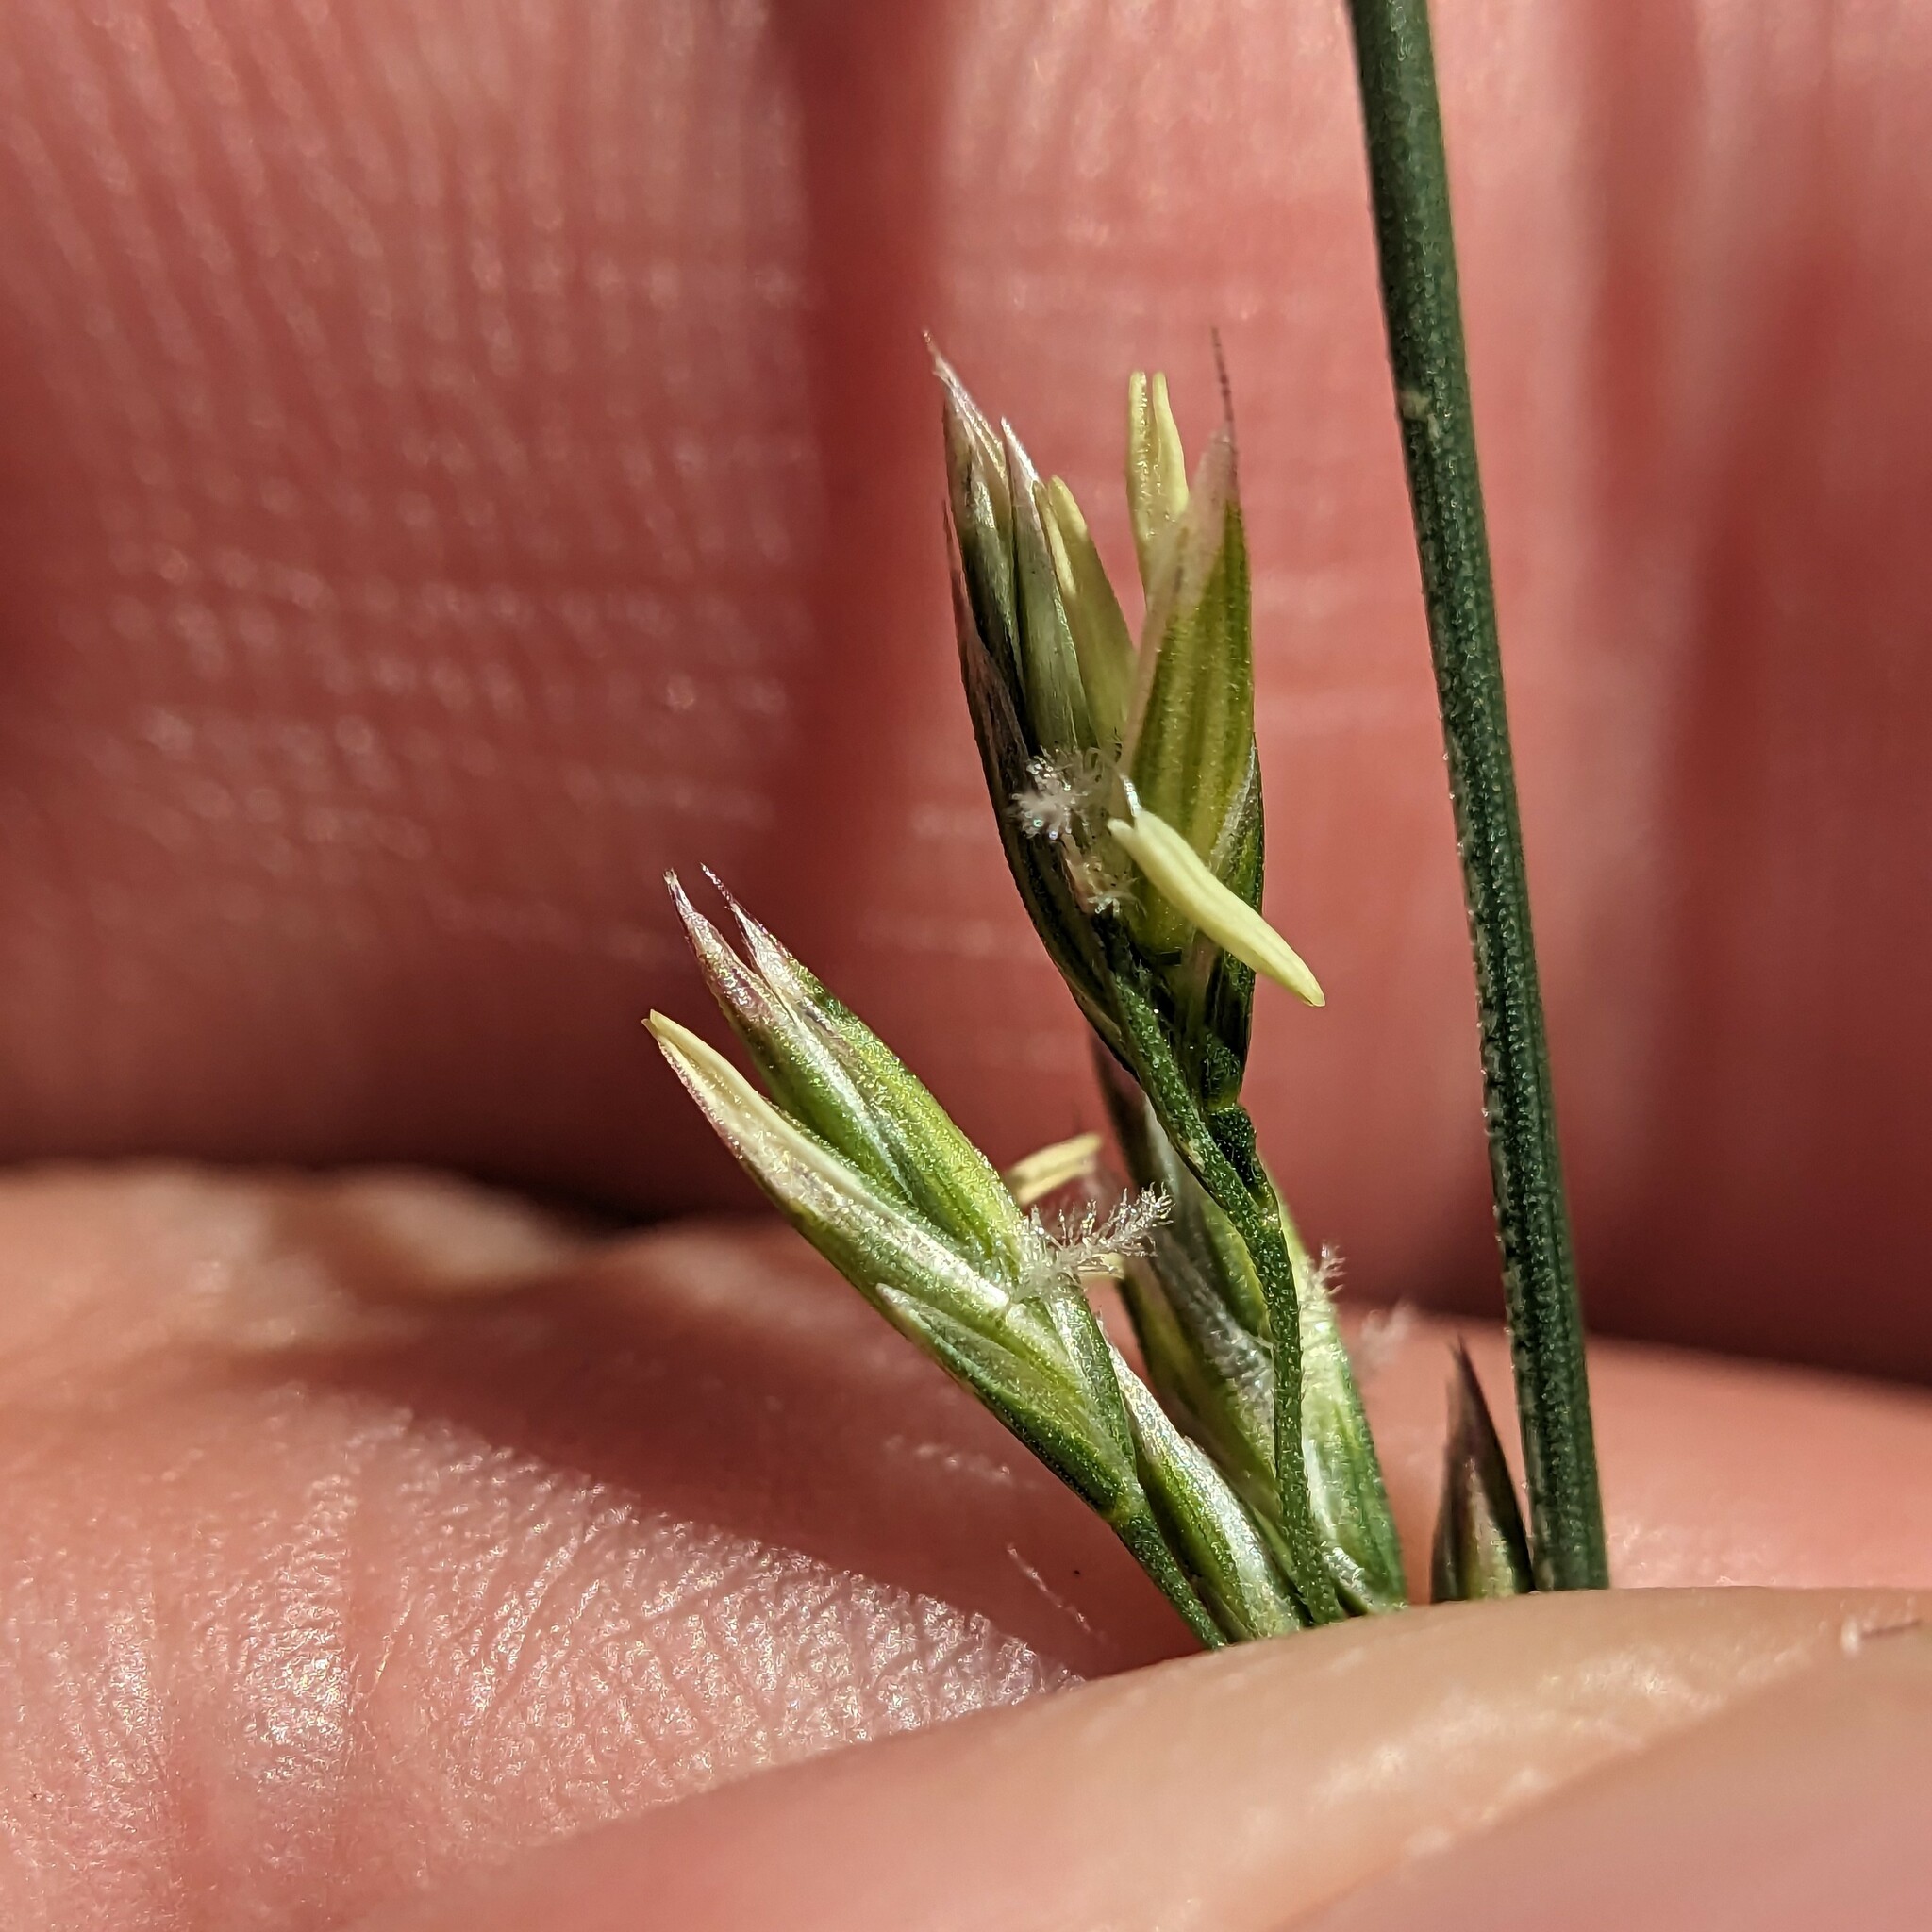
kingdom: Plantae
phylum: Tracheophyta
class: Liliopsida
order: Poales
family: Poaceae
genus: Lolium
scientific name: Lolium arundinaceum
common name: Reed fescue
